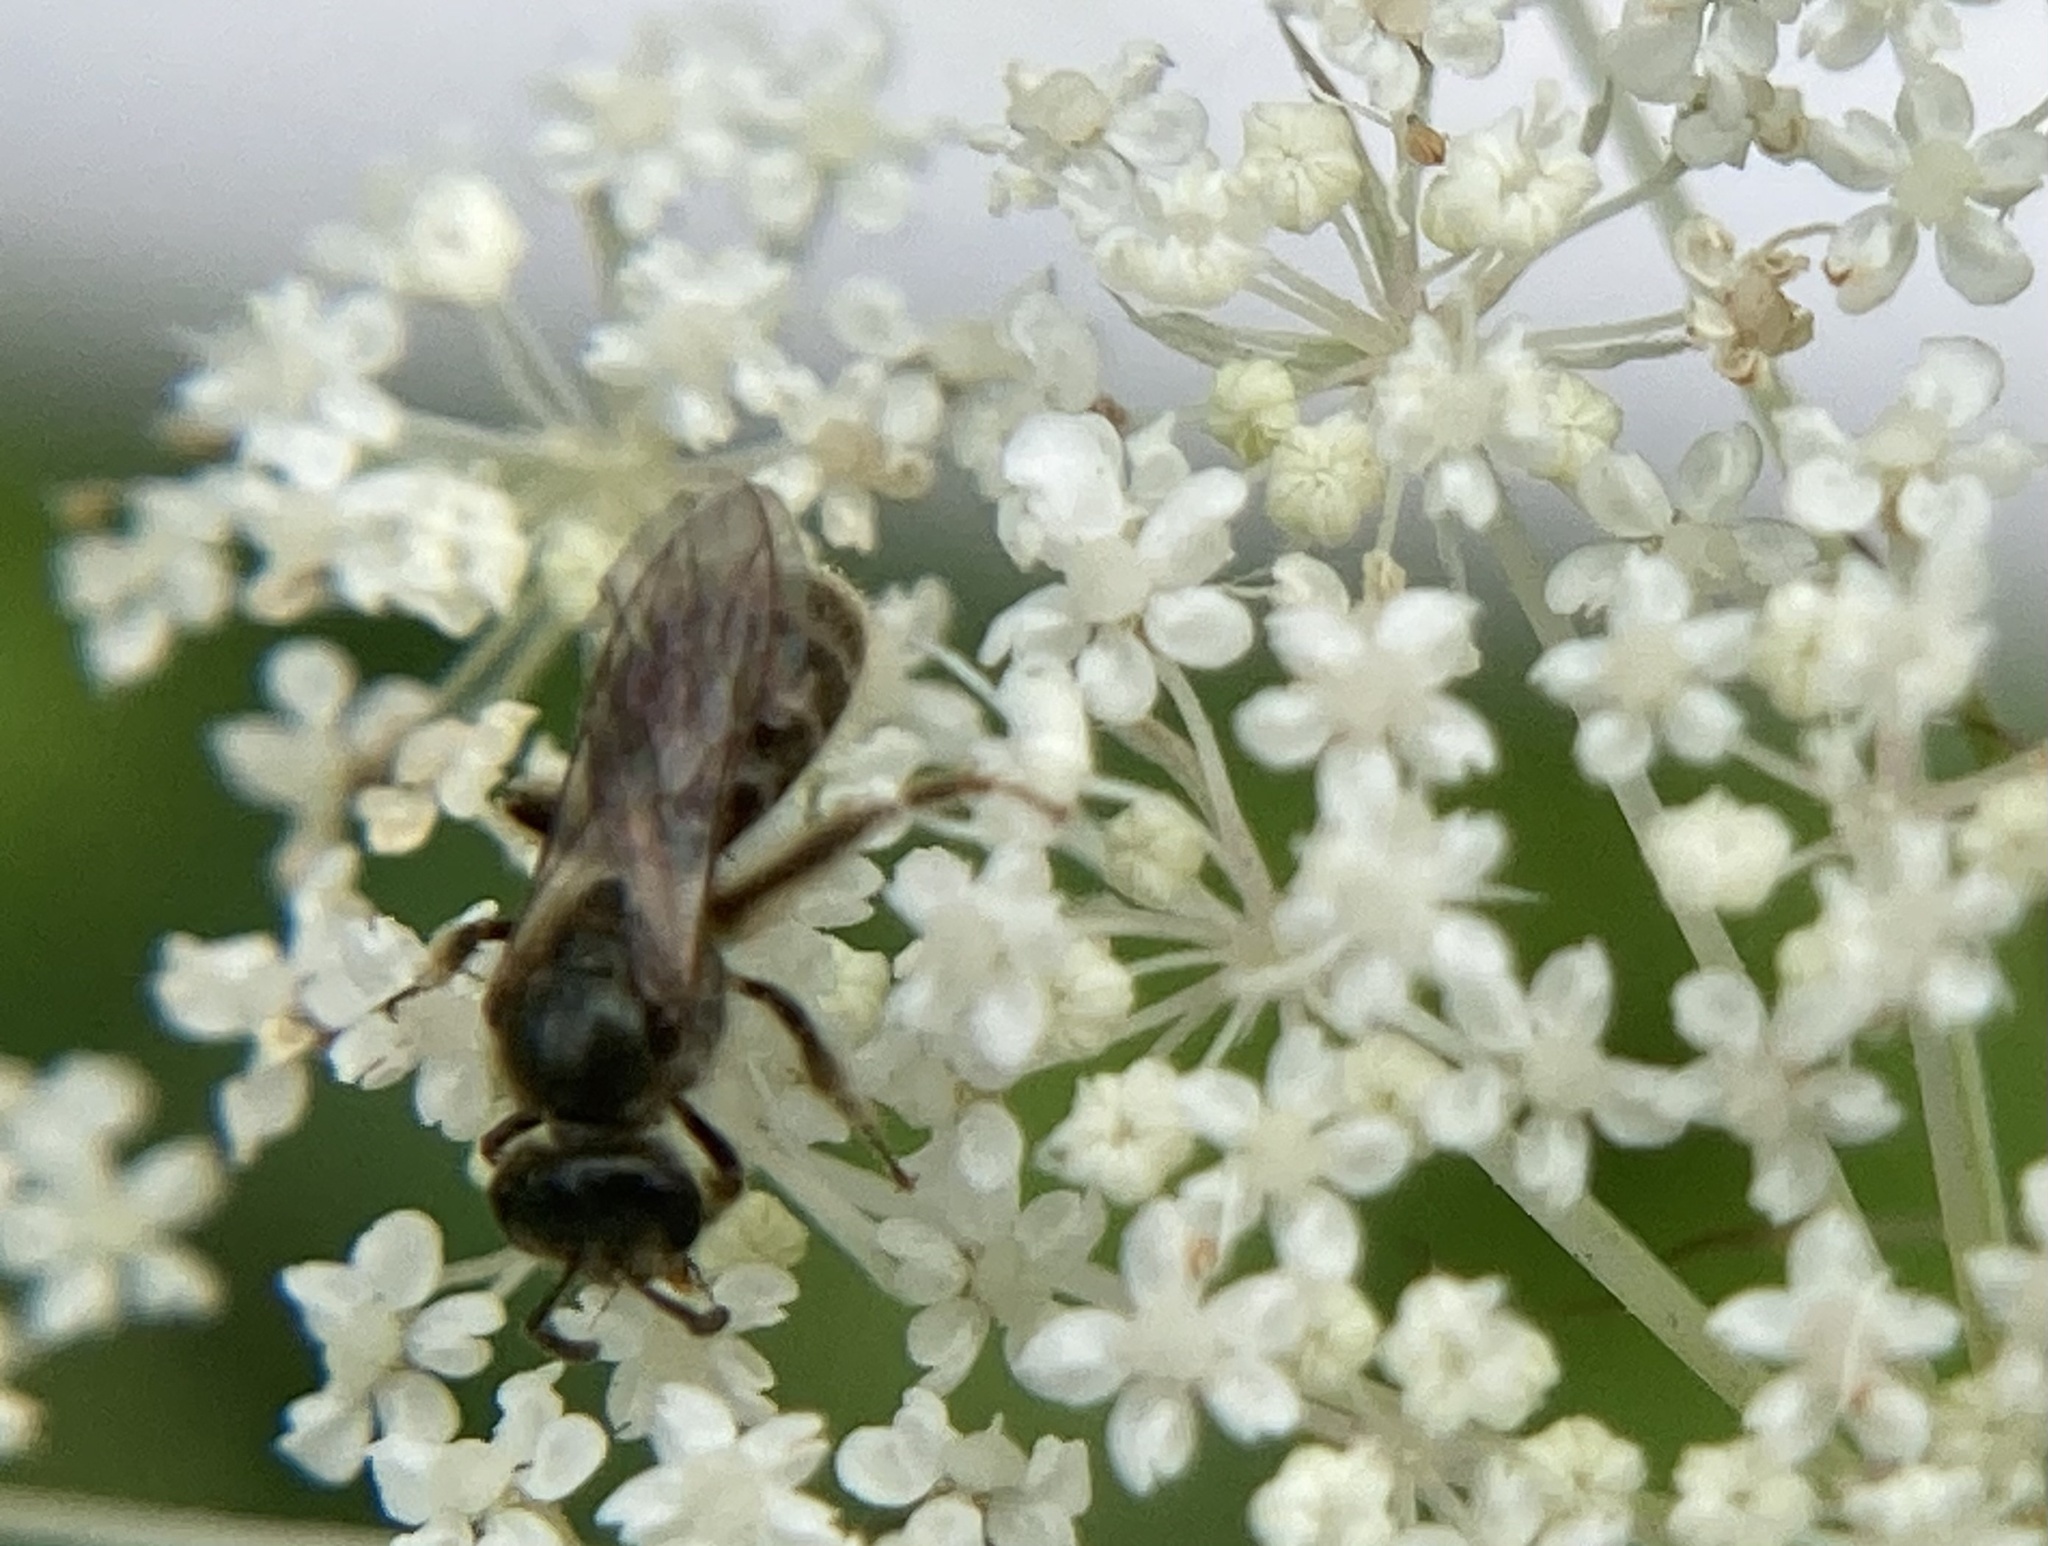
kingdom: Animalia
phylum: Arthropoda
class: Insecta
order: Hymenoptera
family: Halictidae
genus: Dialictus
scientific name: Dialictus
